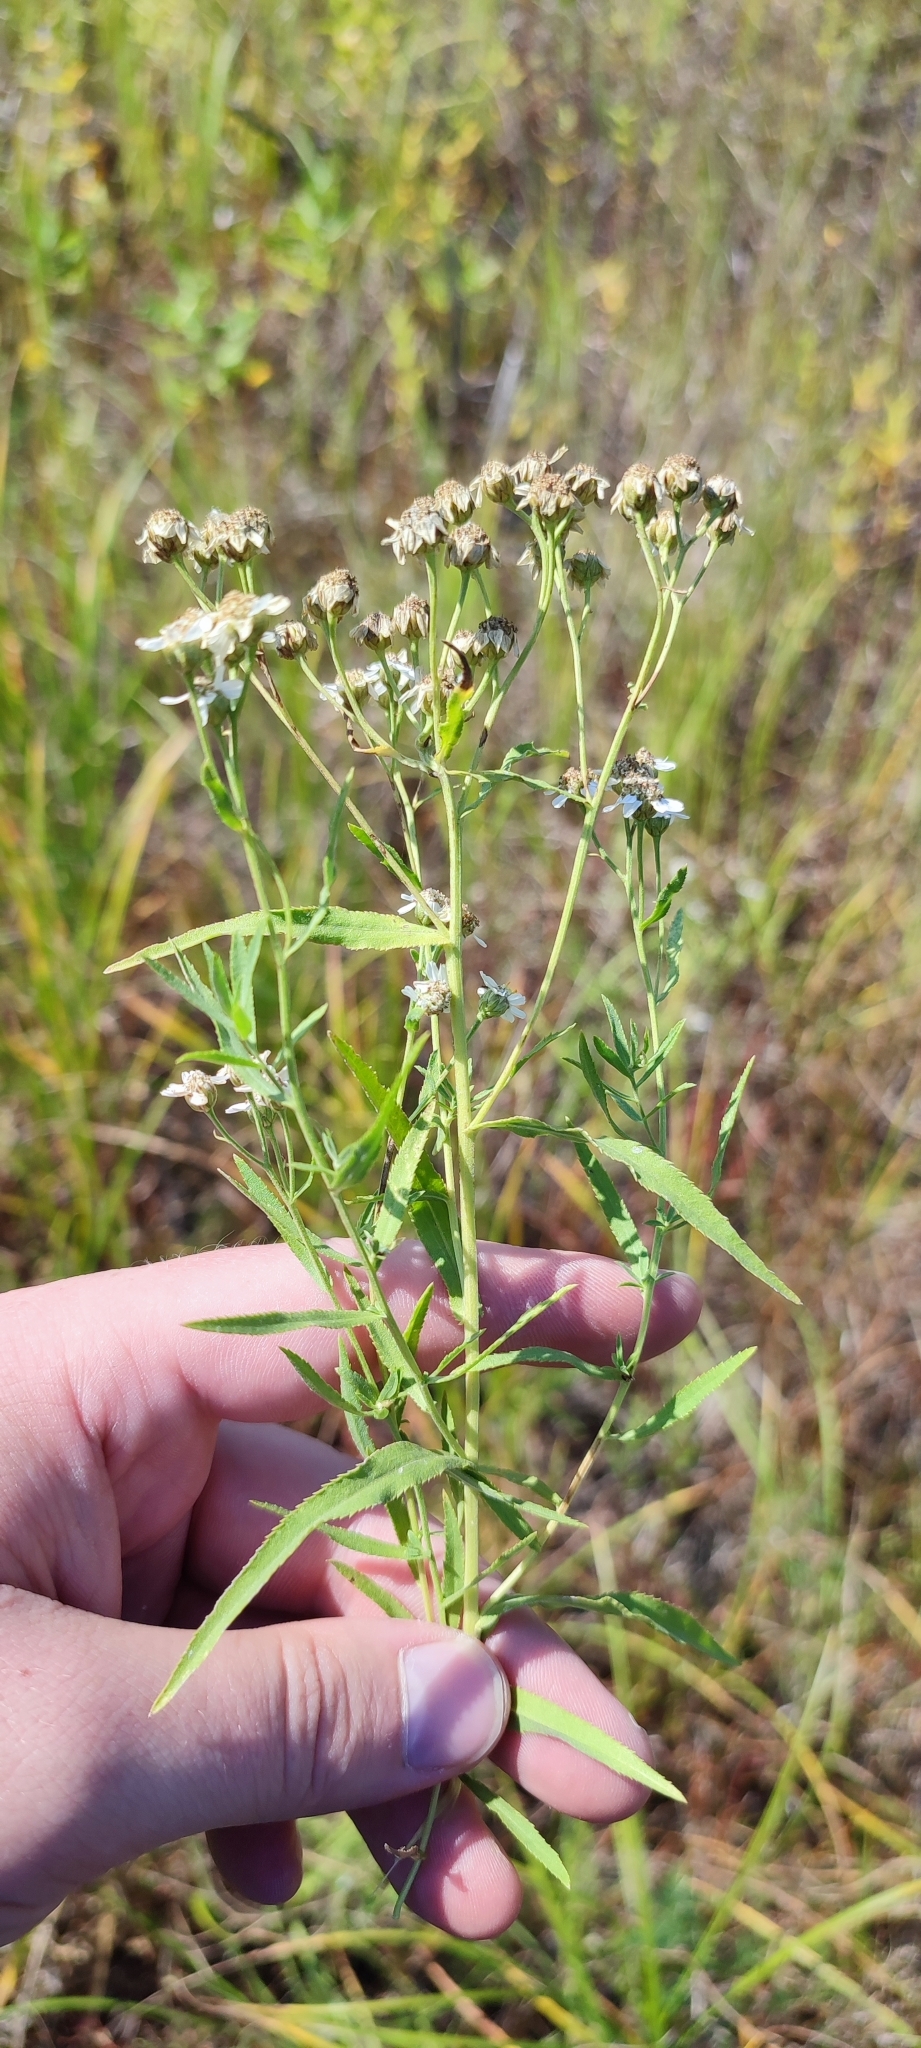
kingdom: Plantae
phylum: Tracheophyta
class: Magnoliopsida
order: Asterales
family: Asteraceae
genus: Achillea
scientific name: Achillea salicifolia
